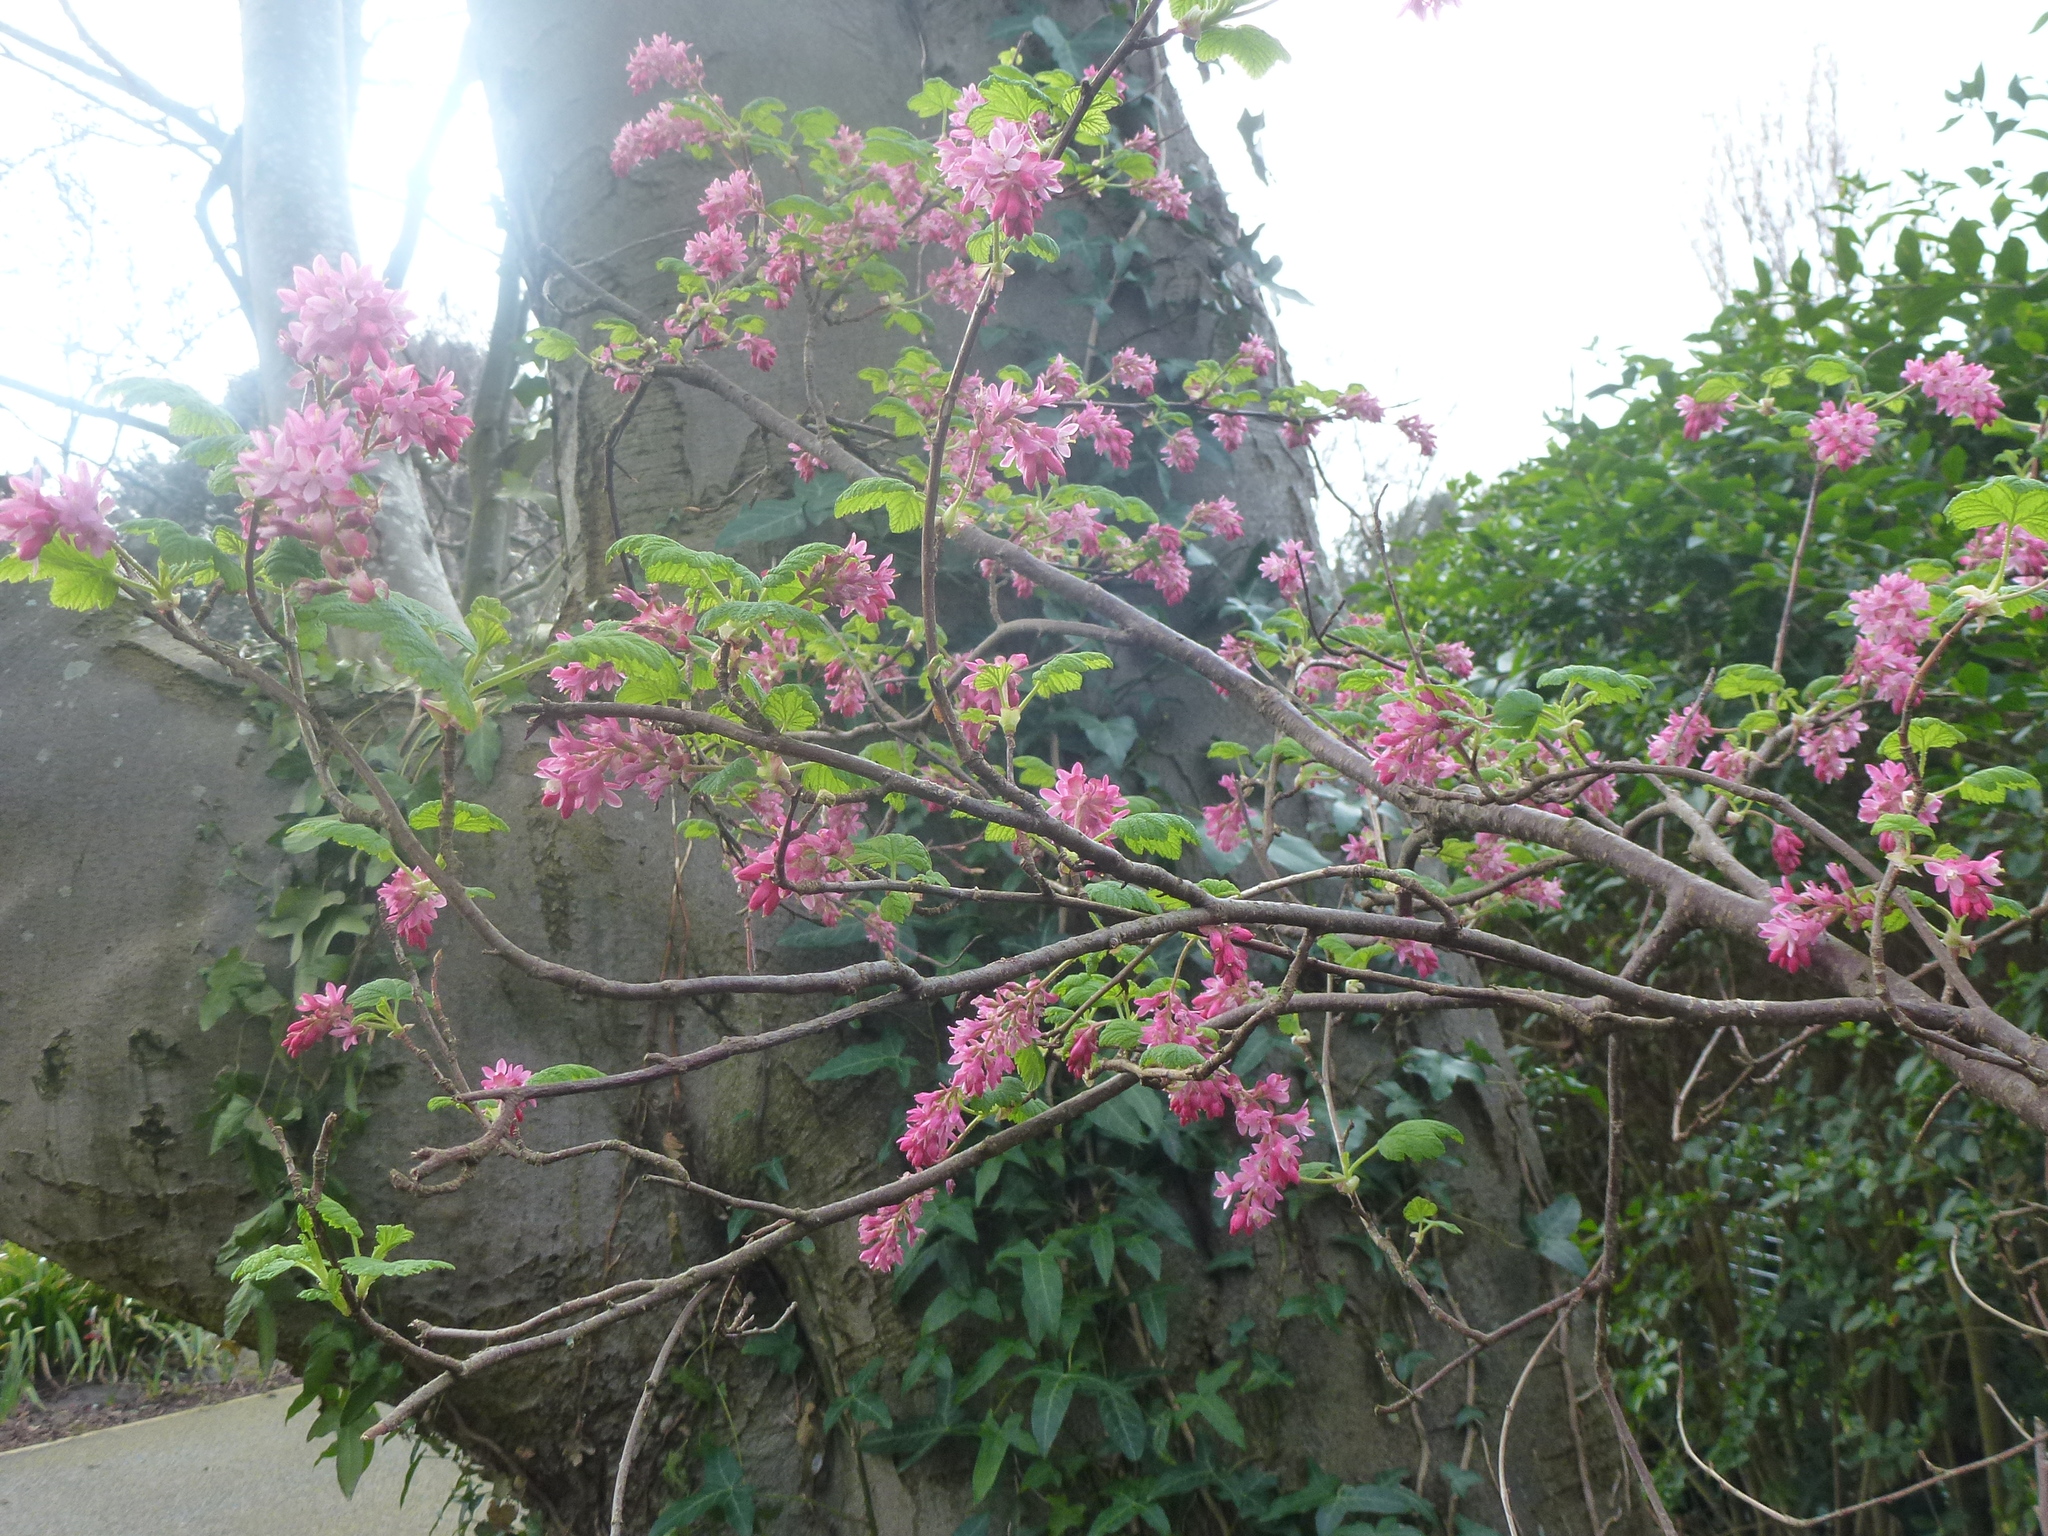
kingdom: Plantae
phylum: Tracheophyta
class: Magnoliopsida
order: Saxifragales
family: Grossulariaceae
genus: Ribes
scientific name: Ribes sanguineum
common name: Flowering currant
